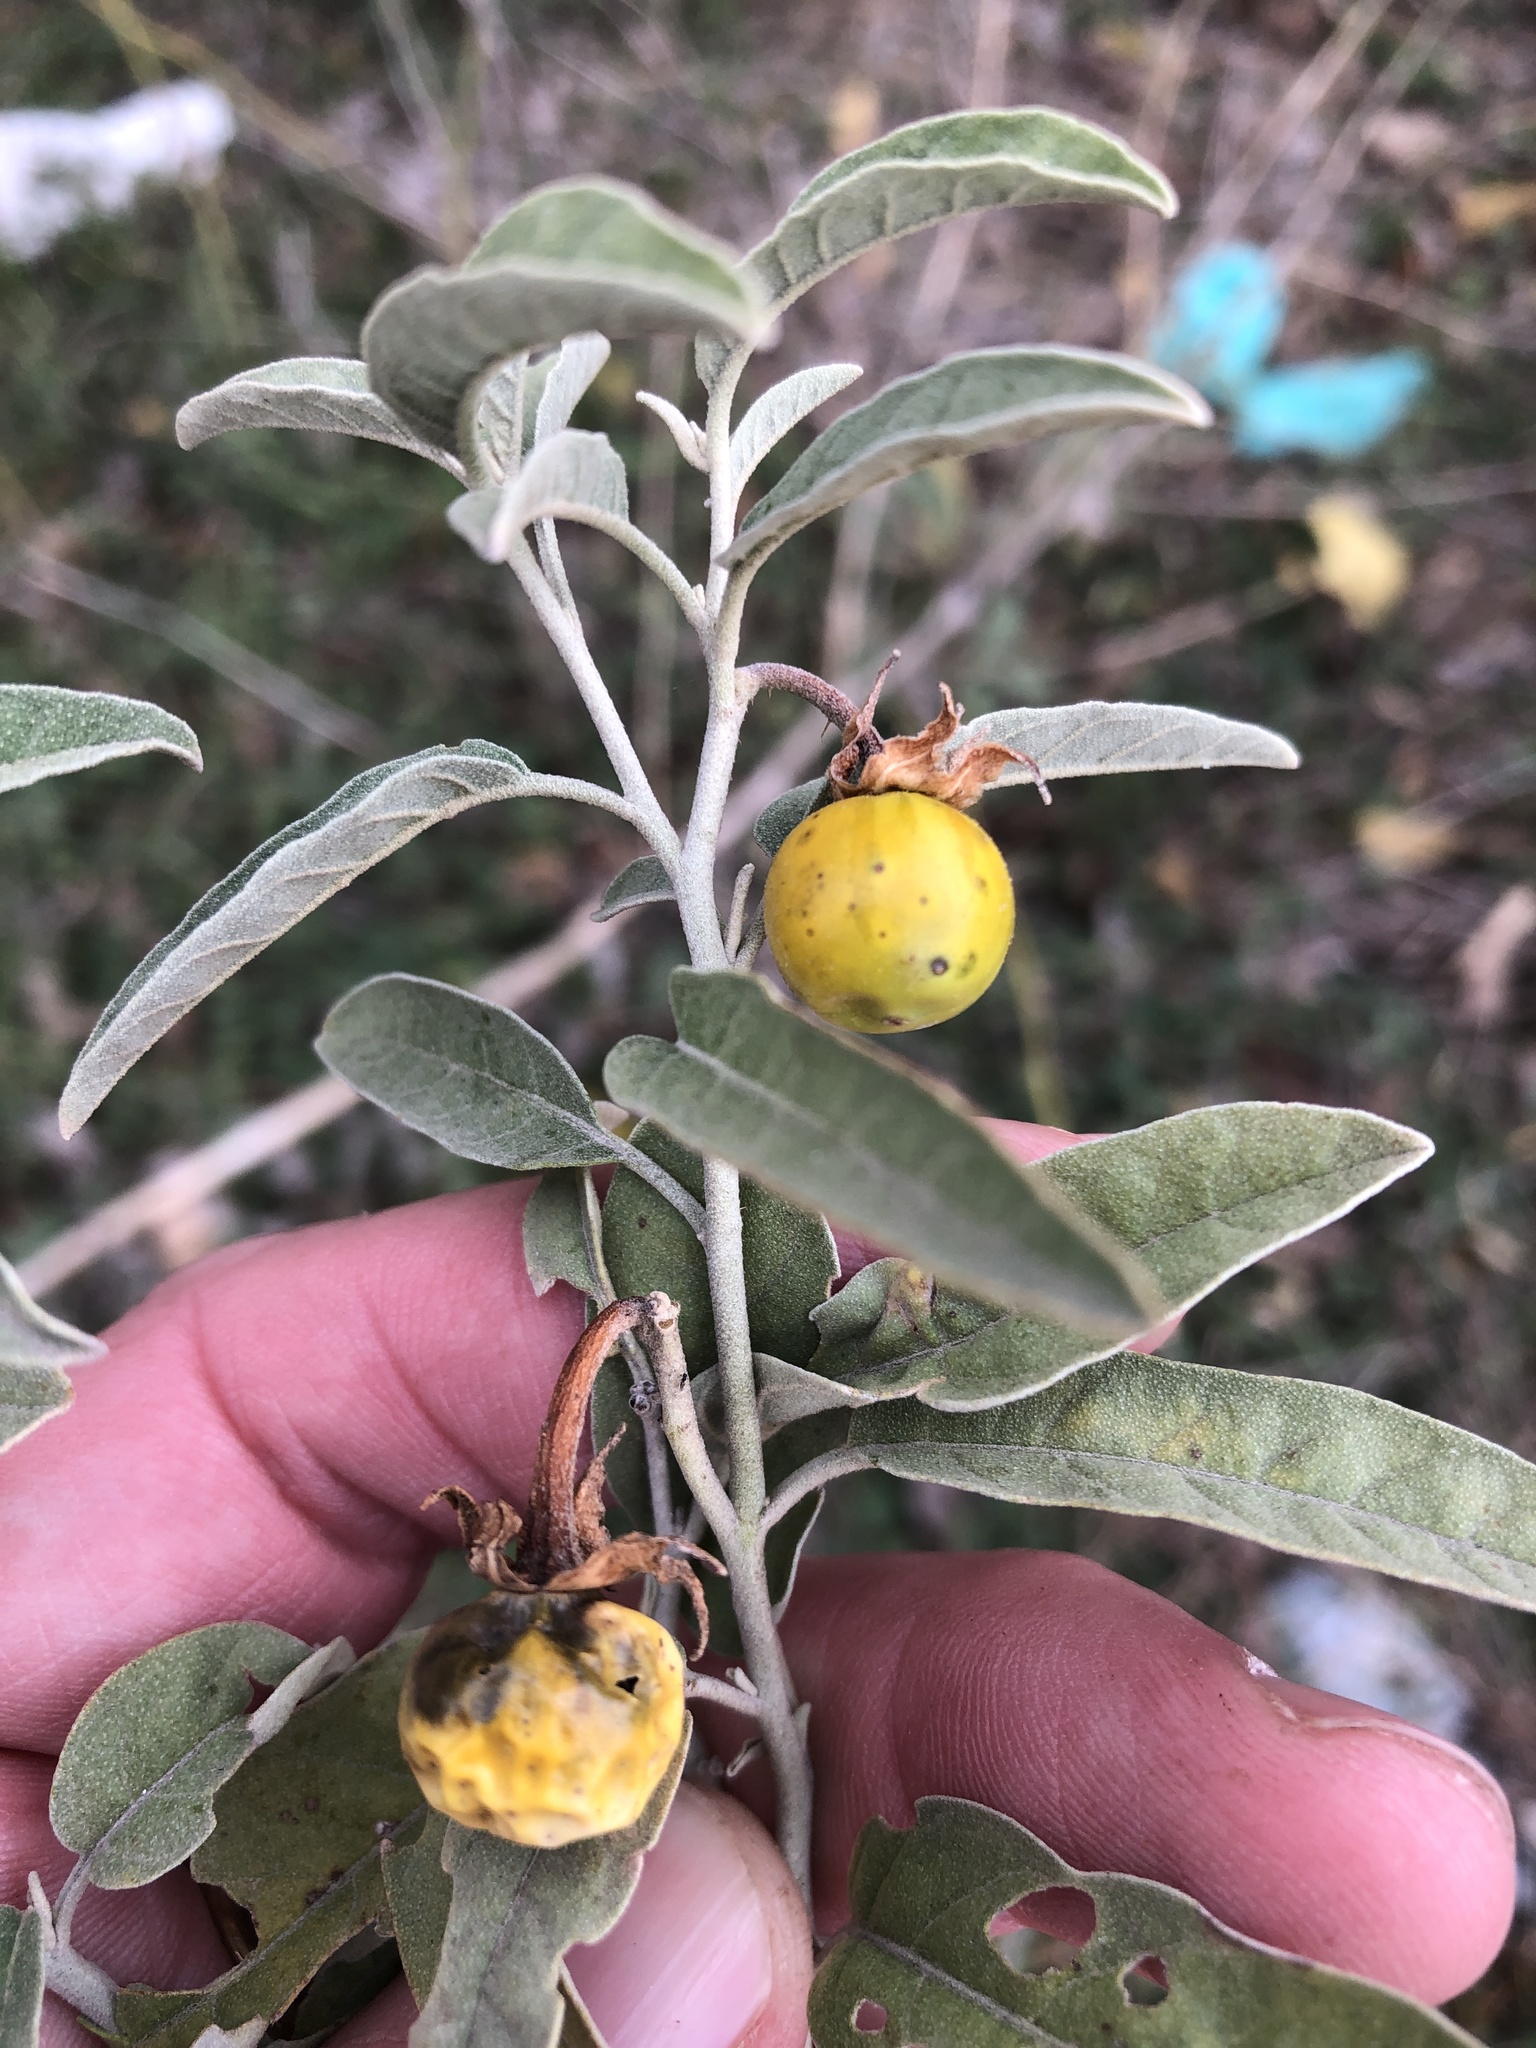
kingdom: Plantae
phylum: Tracheophyta
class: Magnoliopsida
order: Solanales
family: Solanaceae
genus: Solanum
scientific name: Solanum elaeagnifolium
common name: Silverleaf nightshade
